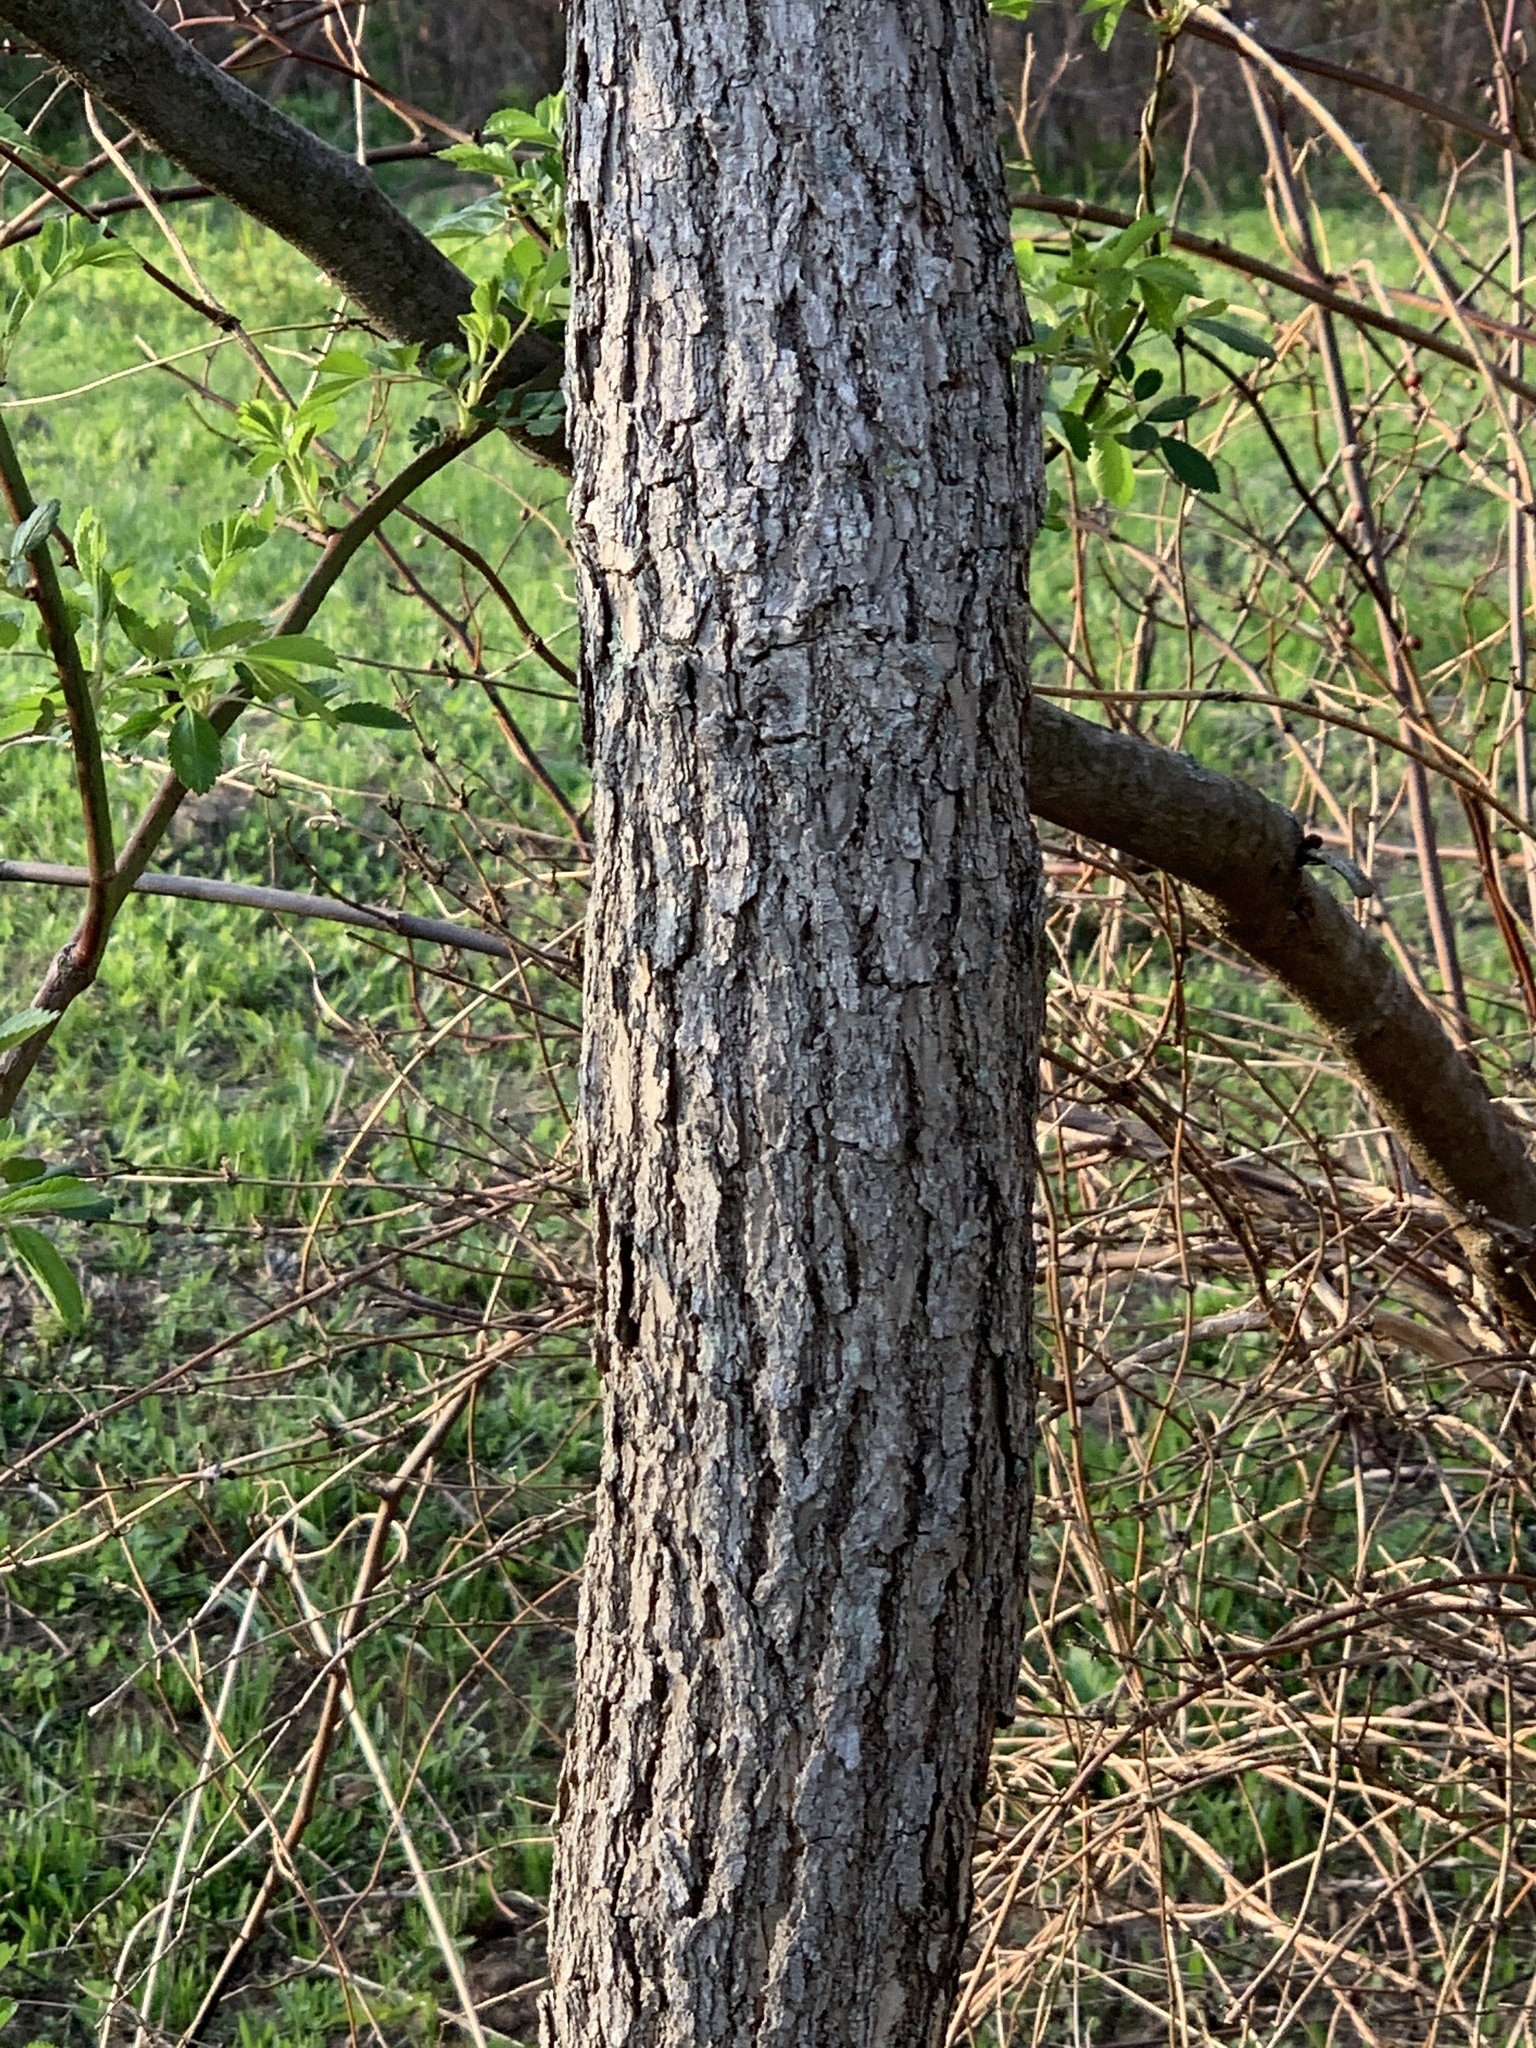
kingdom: Plantae
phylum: Tracheophyta
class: Magnoliopsida
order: Laurales
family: Lauraceae
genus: Sassafras
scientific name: Sassafras albidum
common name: Sassafras
